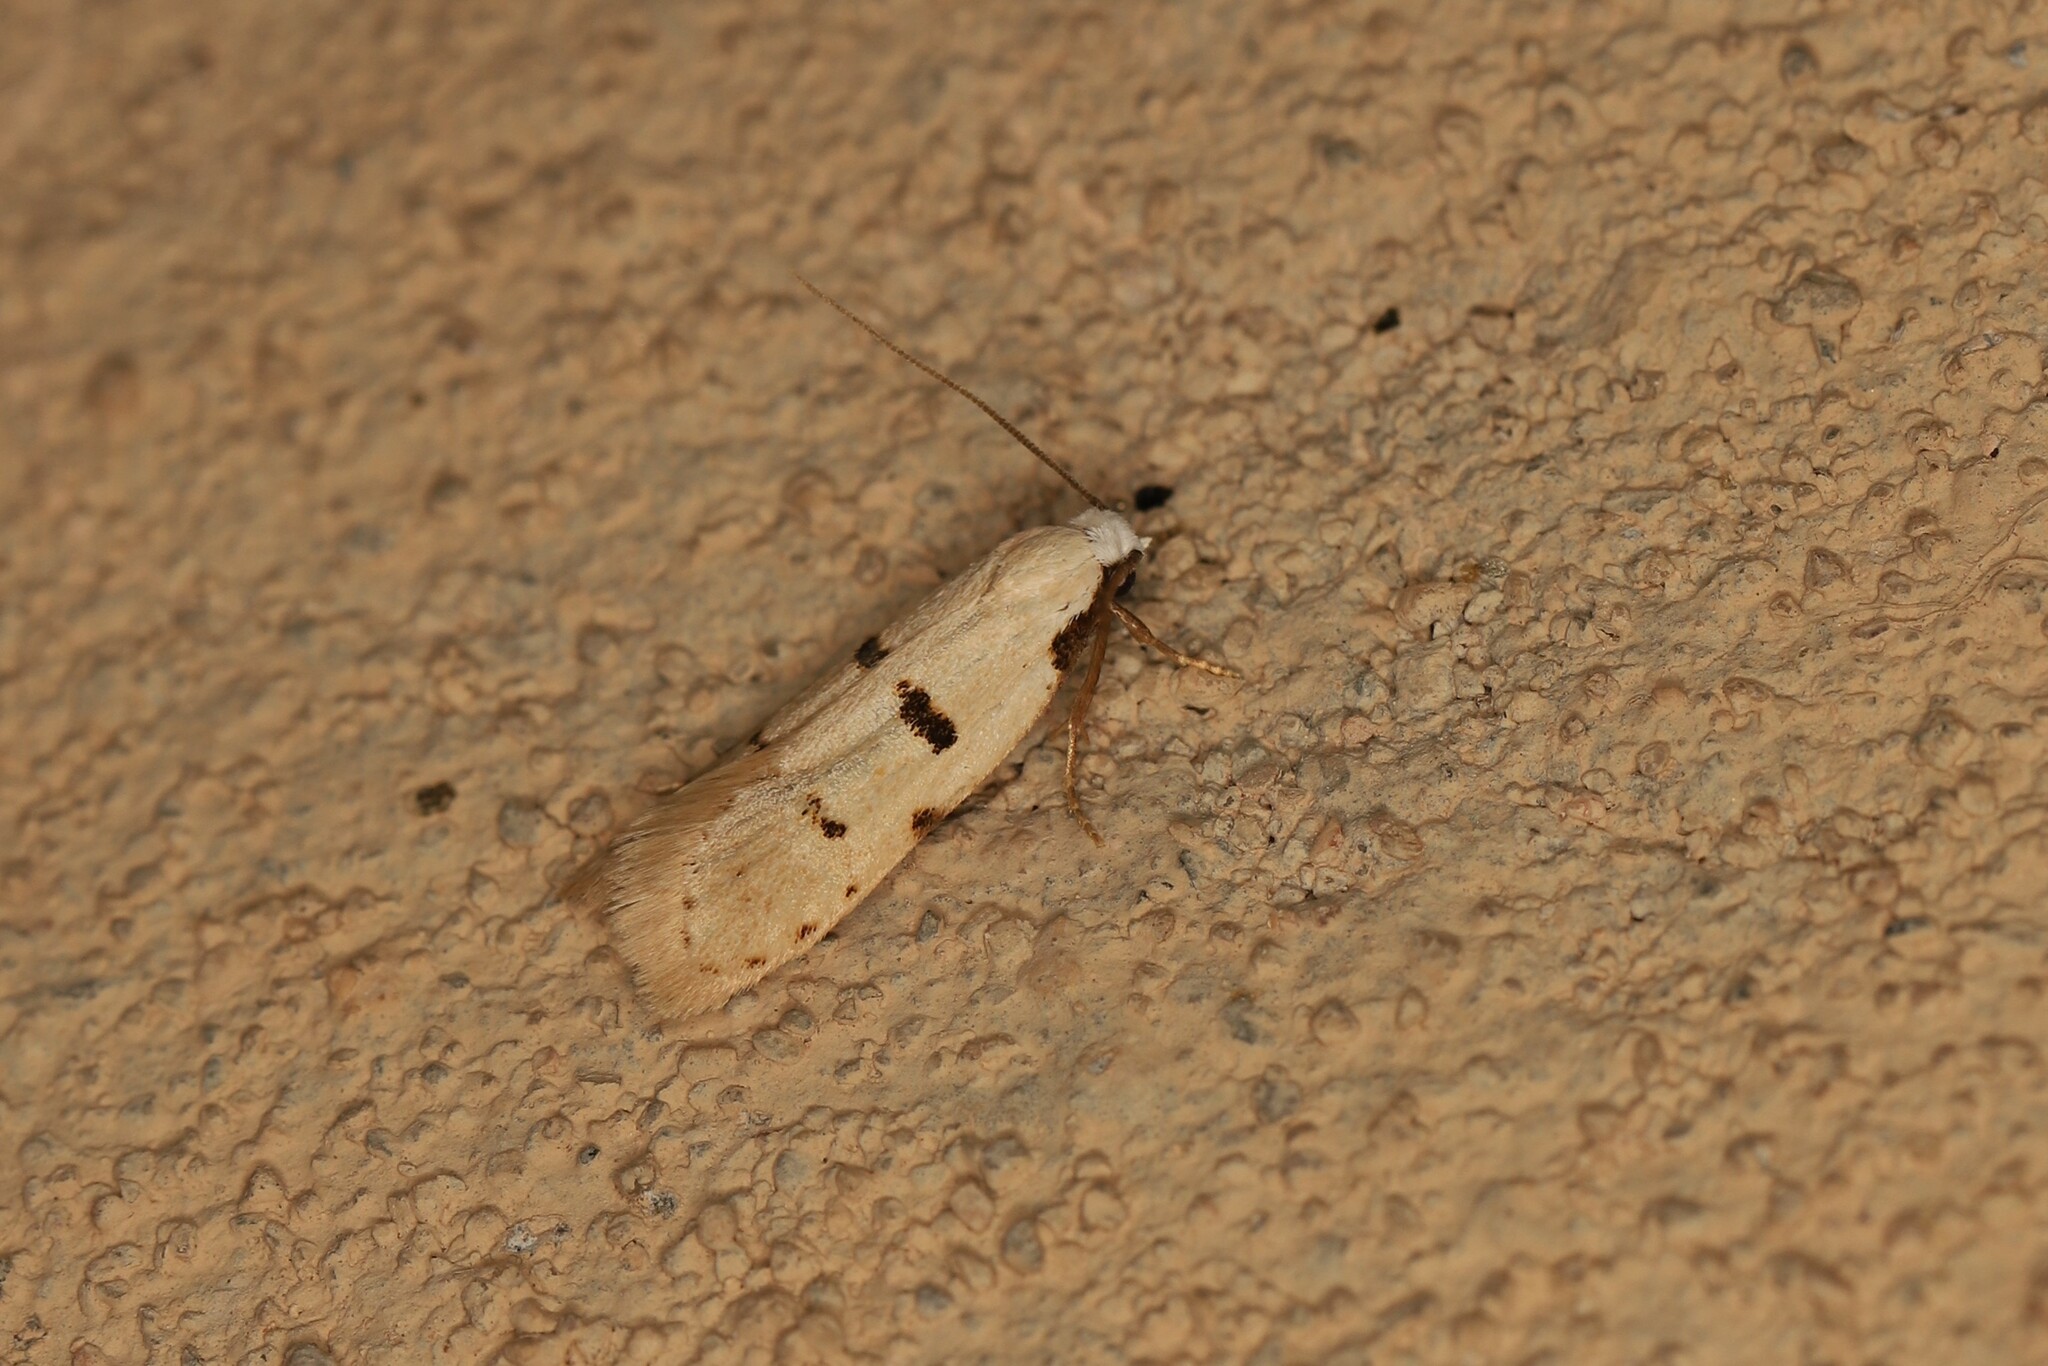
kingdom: Animalia
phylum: Arthropoda
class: Insecta
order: Lepidoptera
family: Autostichidae
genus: Stibaromacha
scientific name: Stibaromacha ratella
